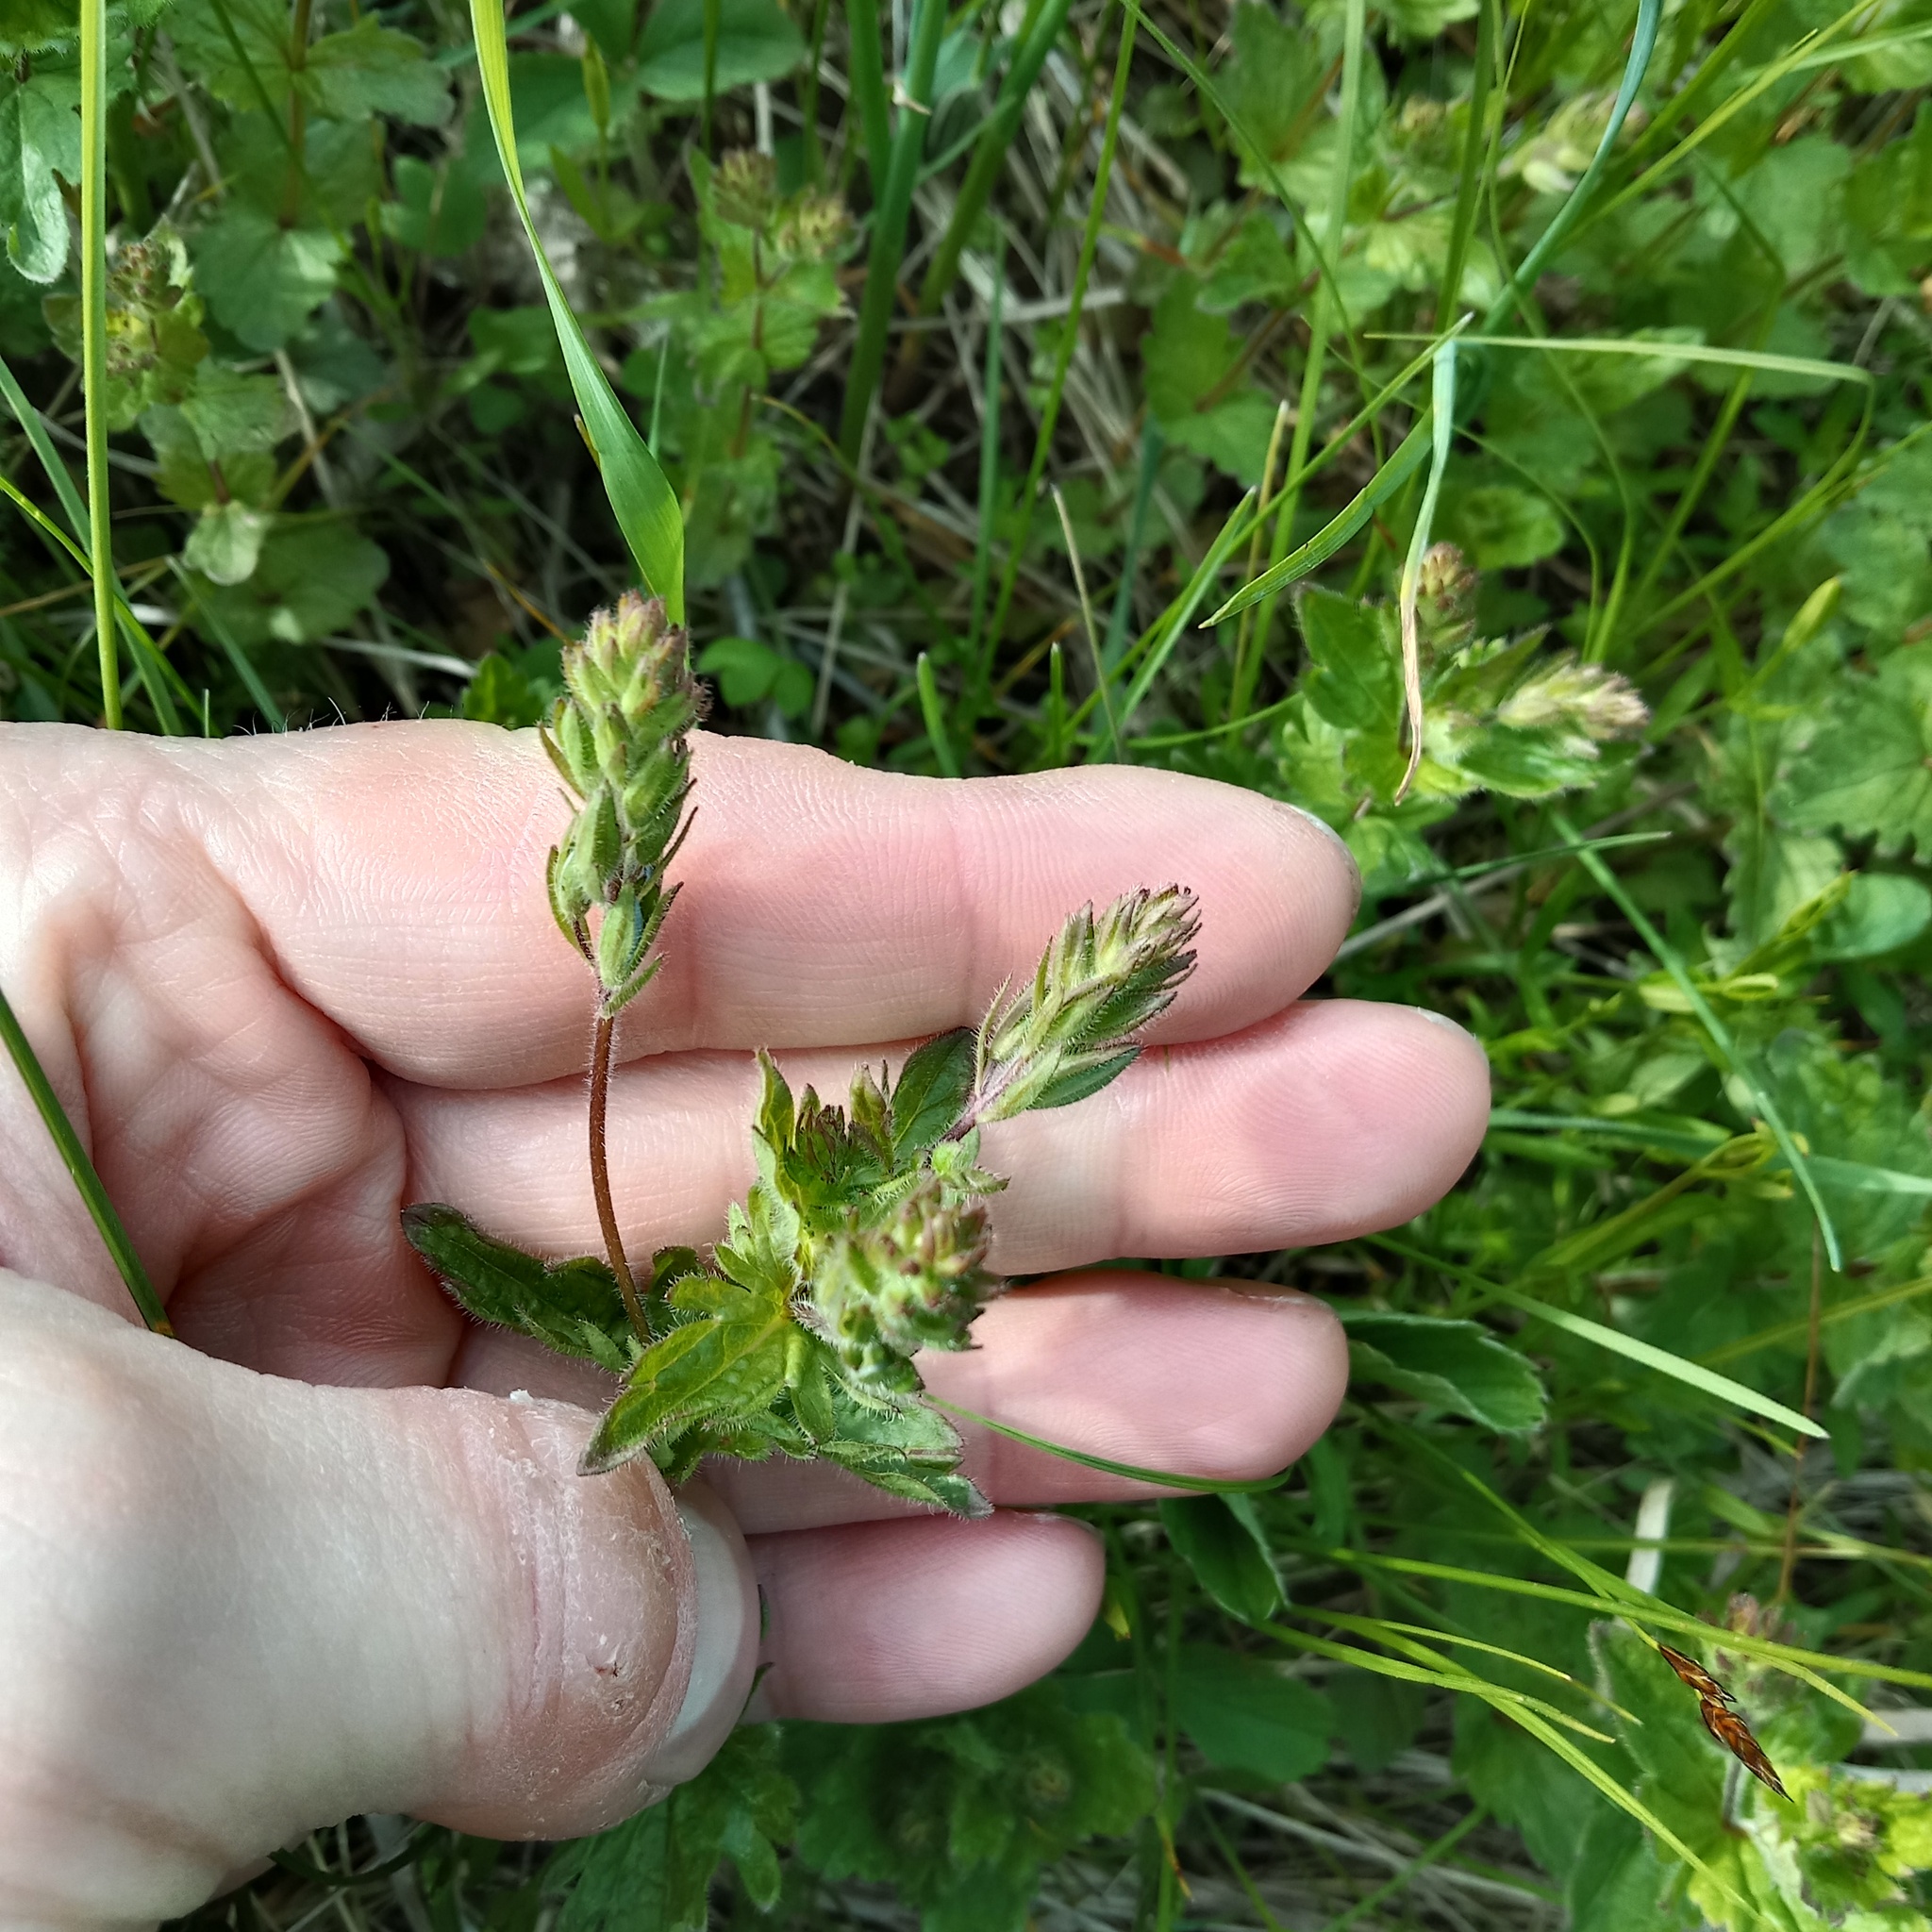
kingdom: Plantae
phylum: Tracheophyta
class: Magnoliopsida
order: Lamiales
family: Plantaginaceae
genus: Veronica
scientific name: Veronica chamaedrys
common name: Germander speedwell
